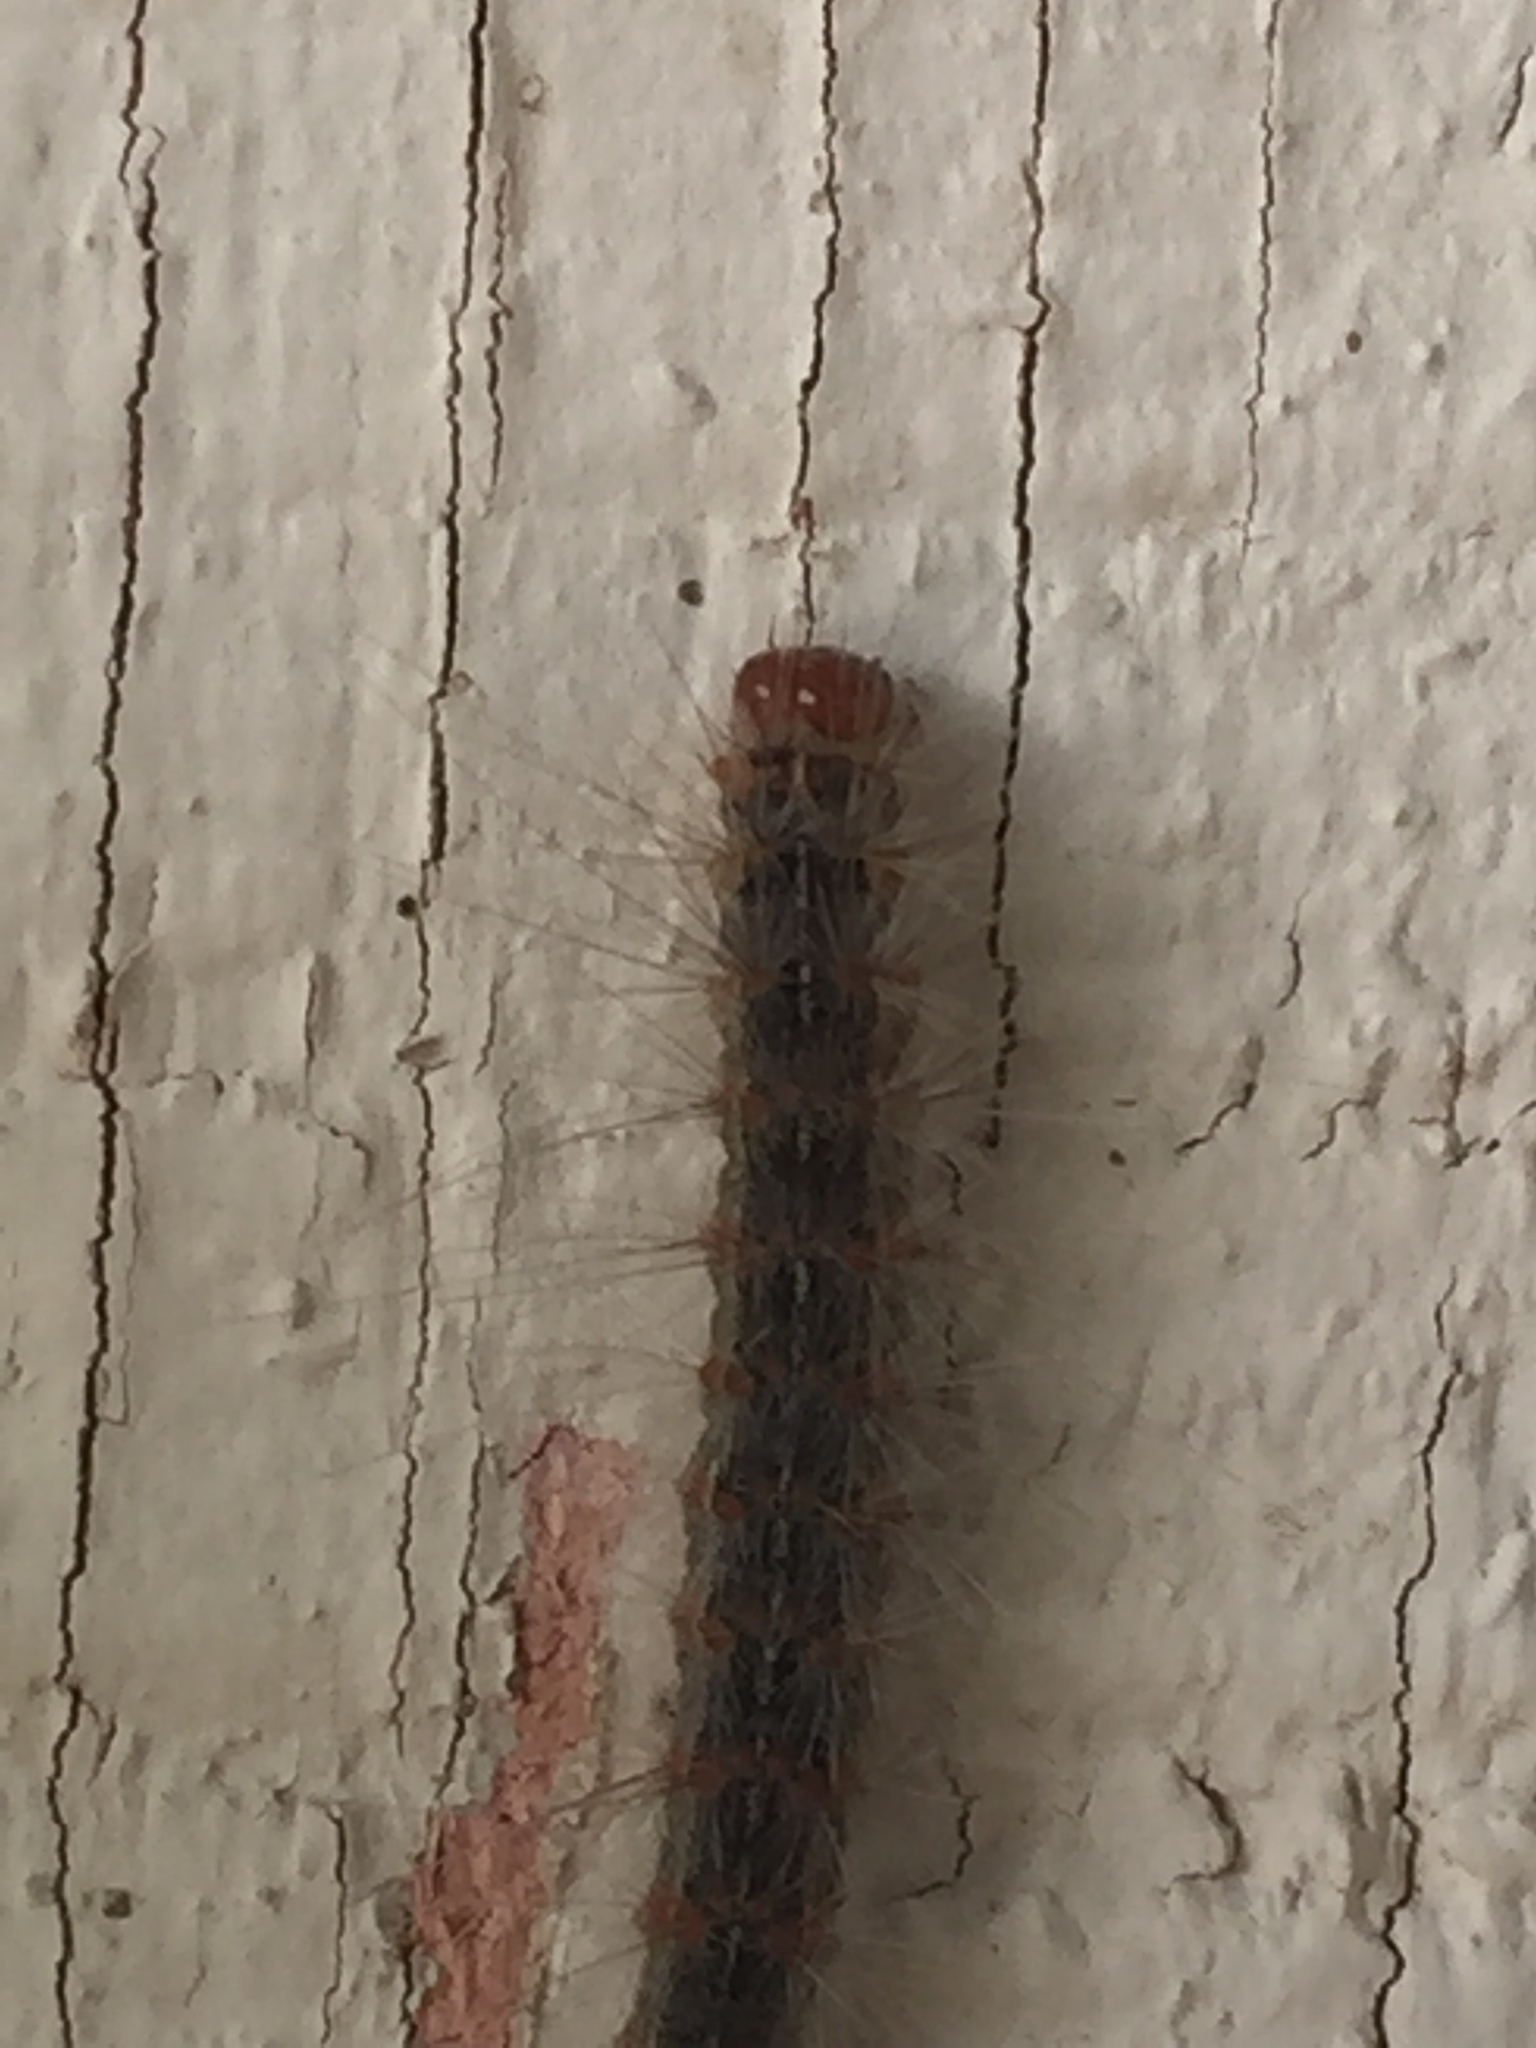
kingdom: Animalia
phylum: Arthropoda
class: Insecta
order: Lepidoptera
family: Erebidae
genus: Hyphantria
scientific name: Hyphantria cunea
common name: American white moth
